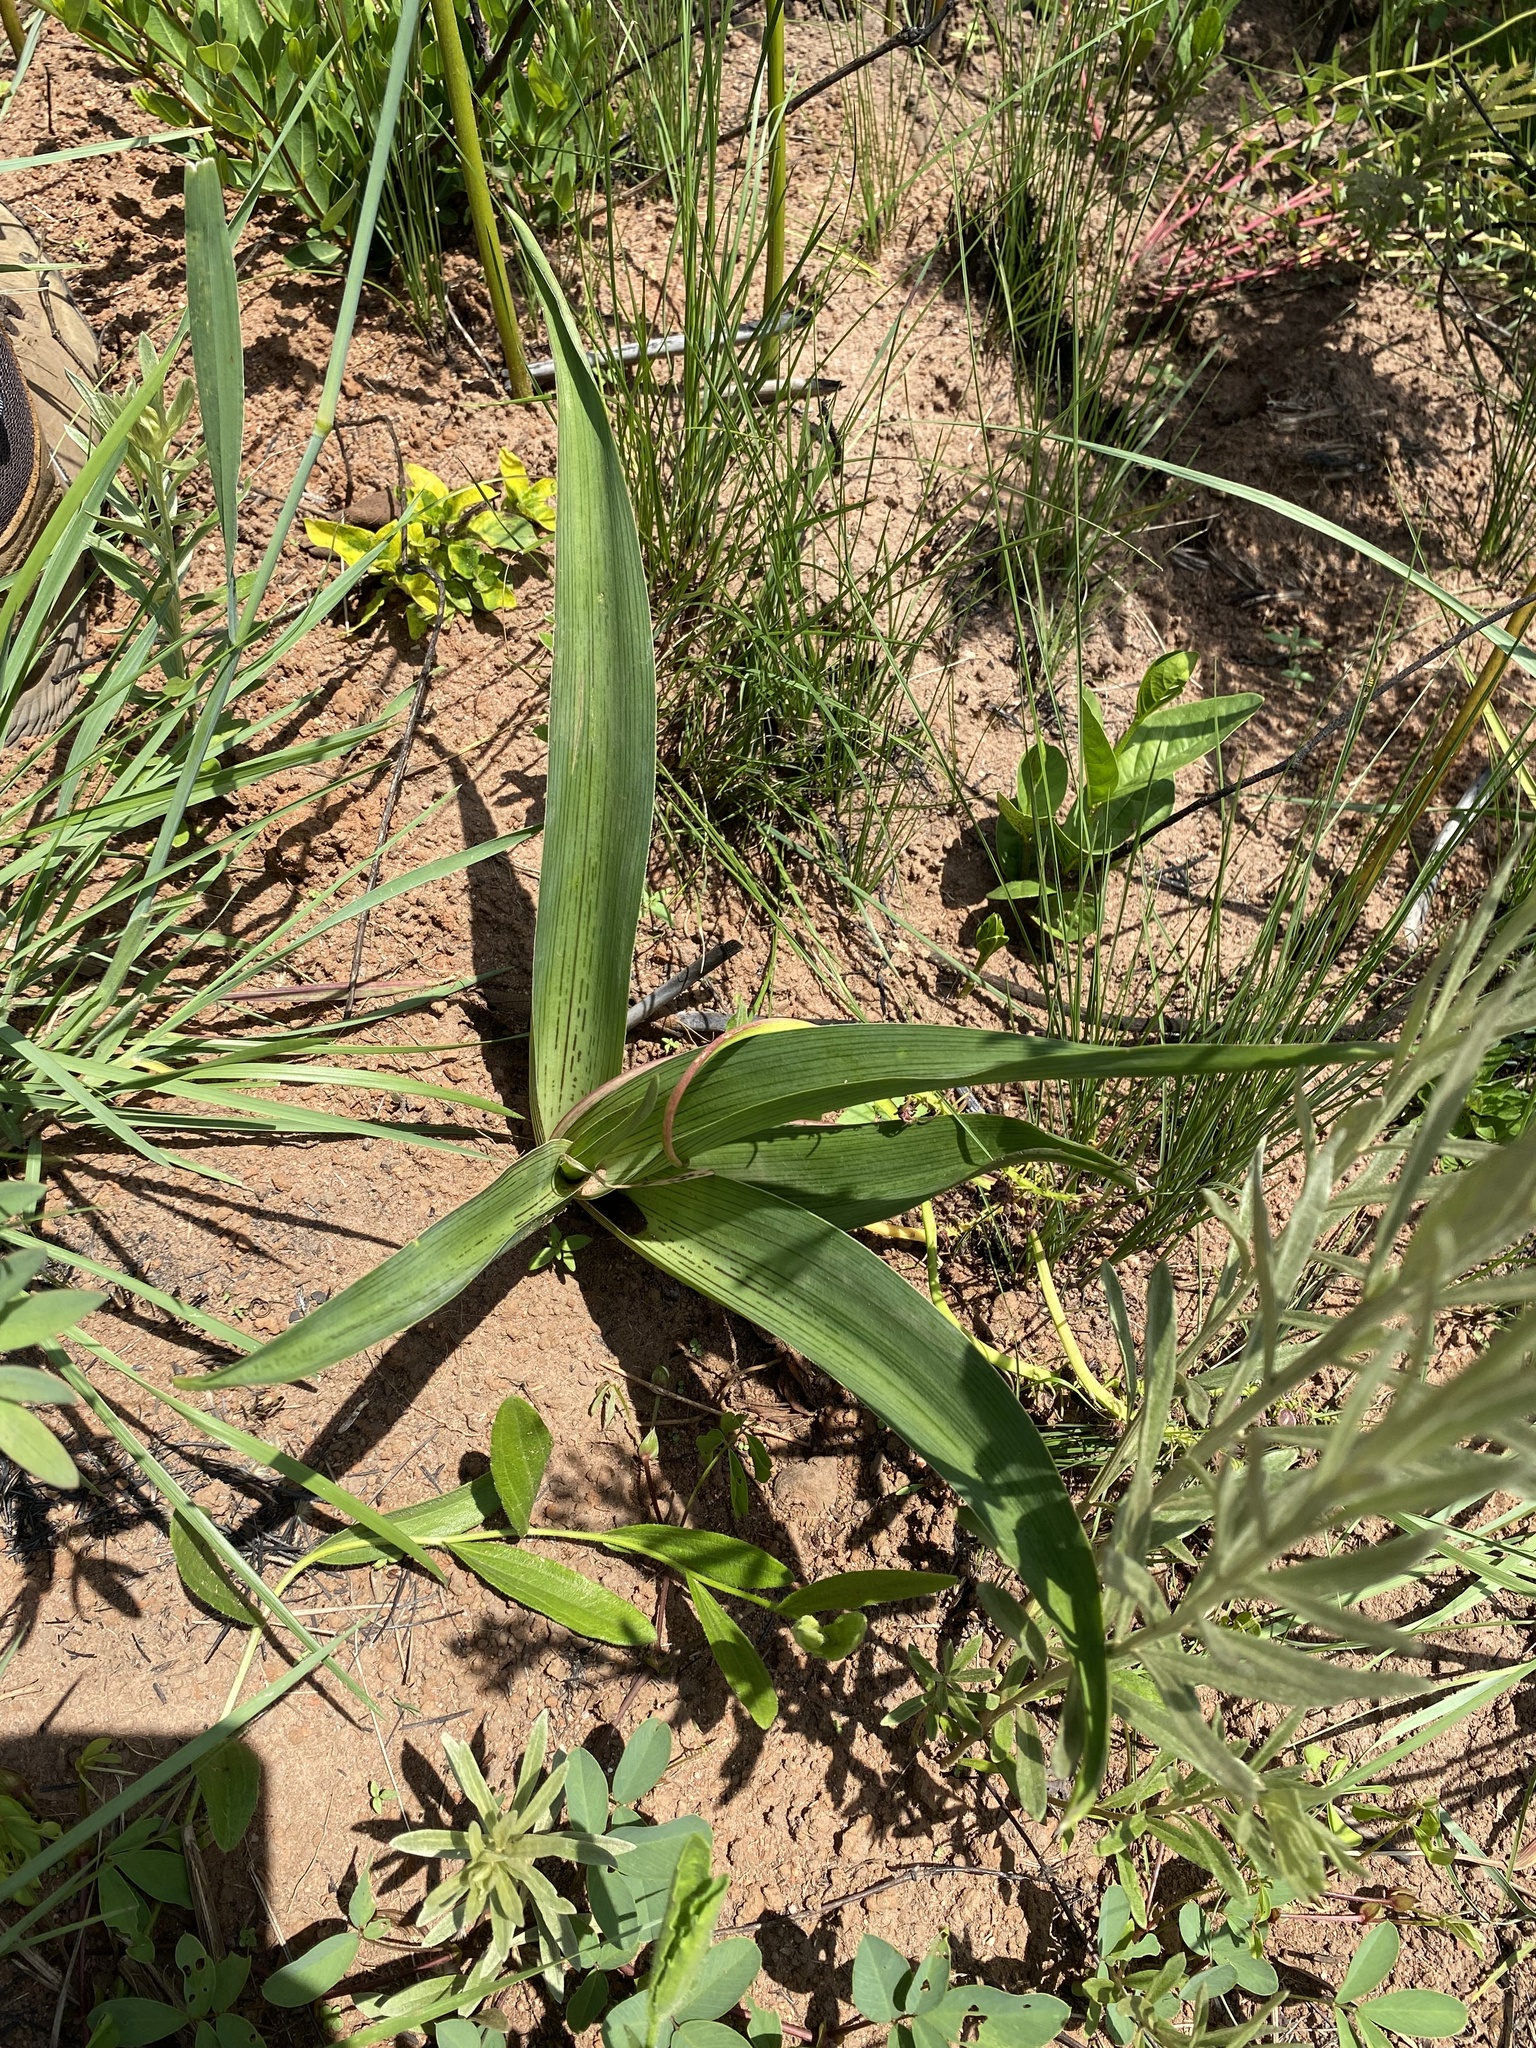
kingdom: Plantae
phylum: Tracheophyta
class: Liliopsida
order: Asparagales
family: Asparagaceae
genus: Ledebouria
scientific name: Ledebouria zebrina
